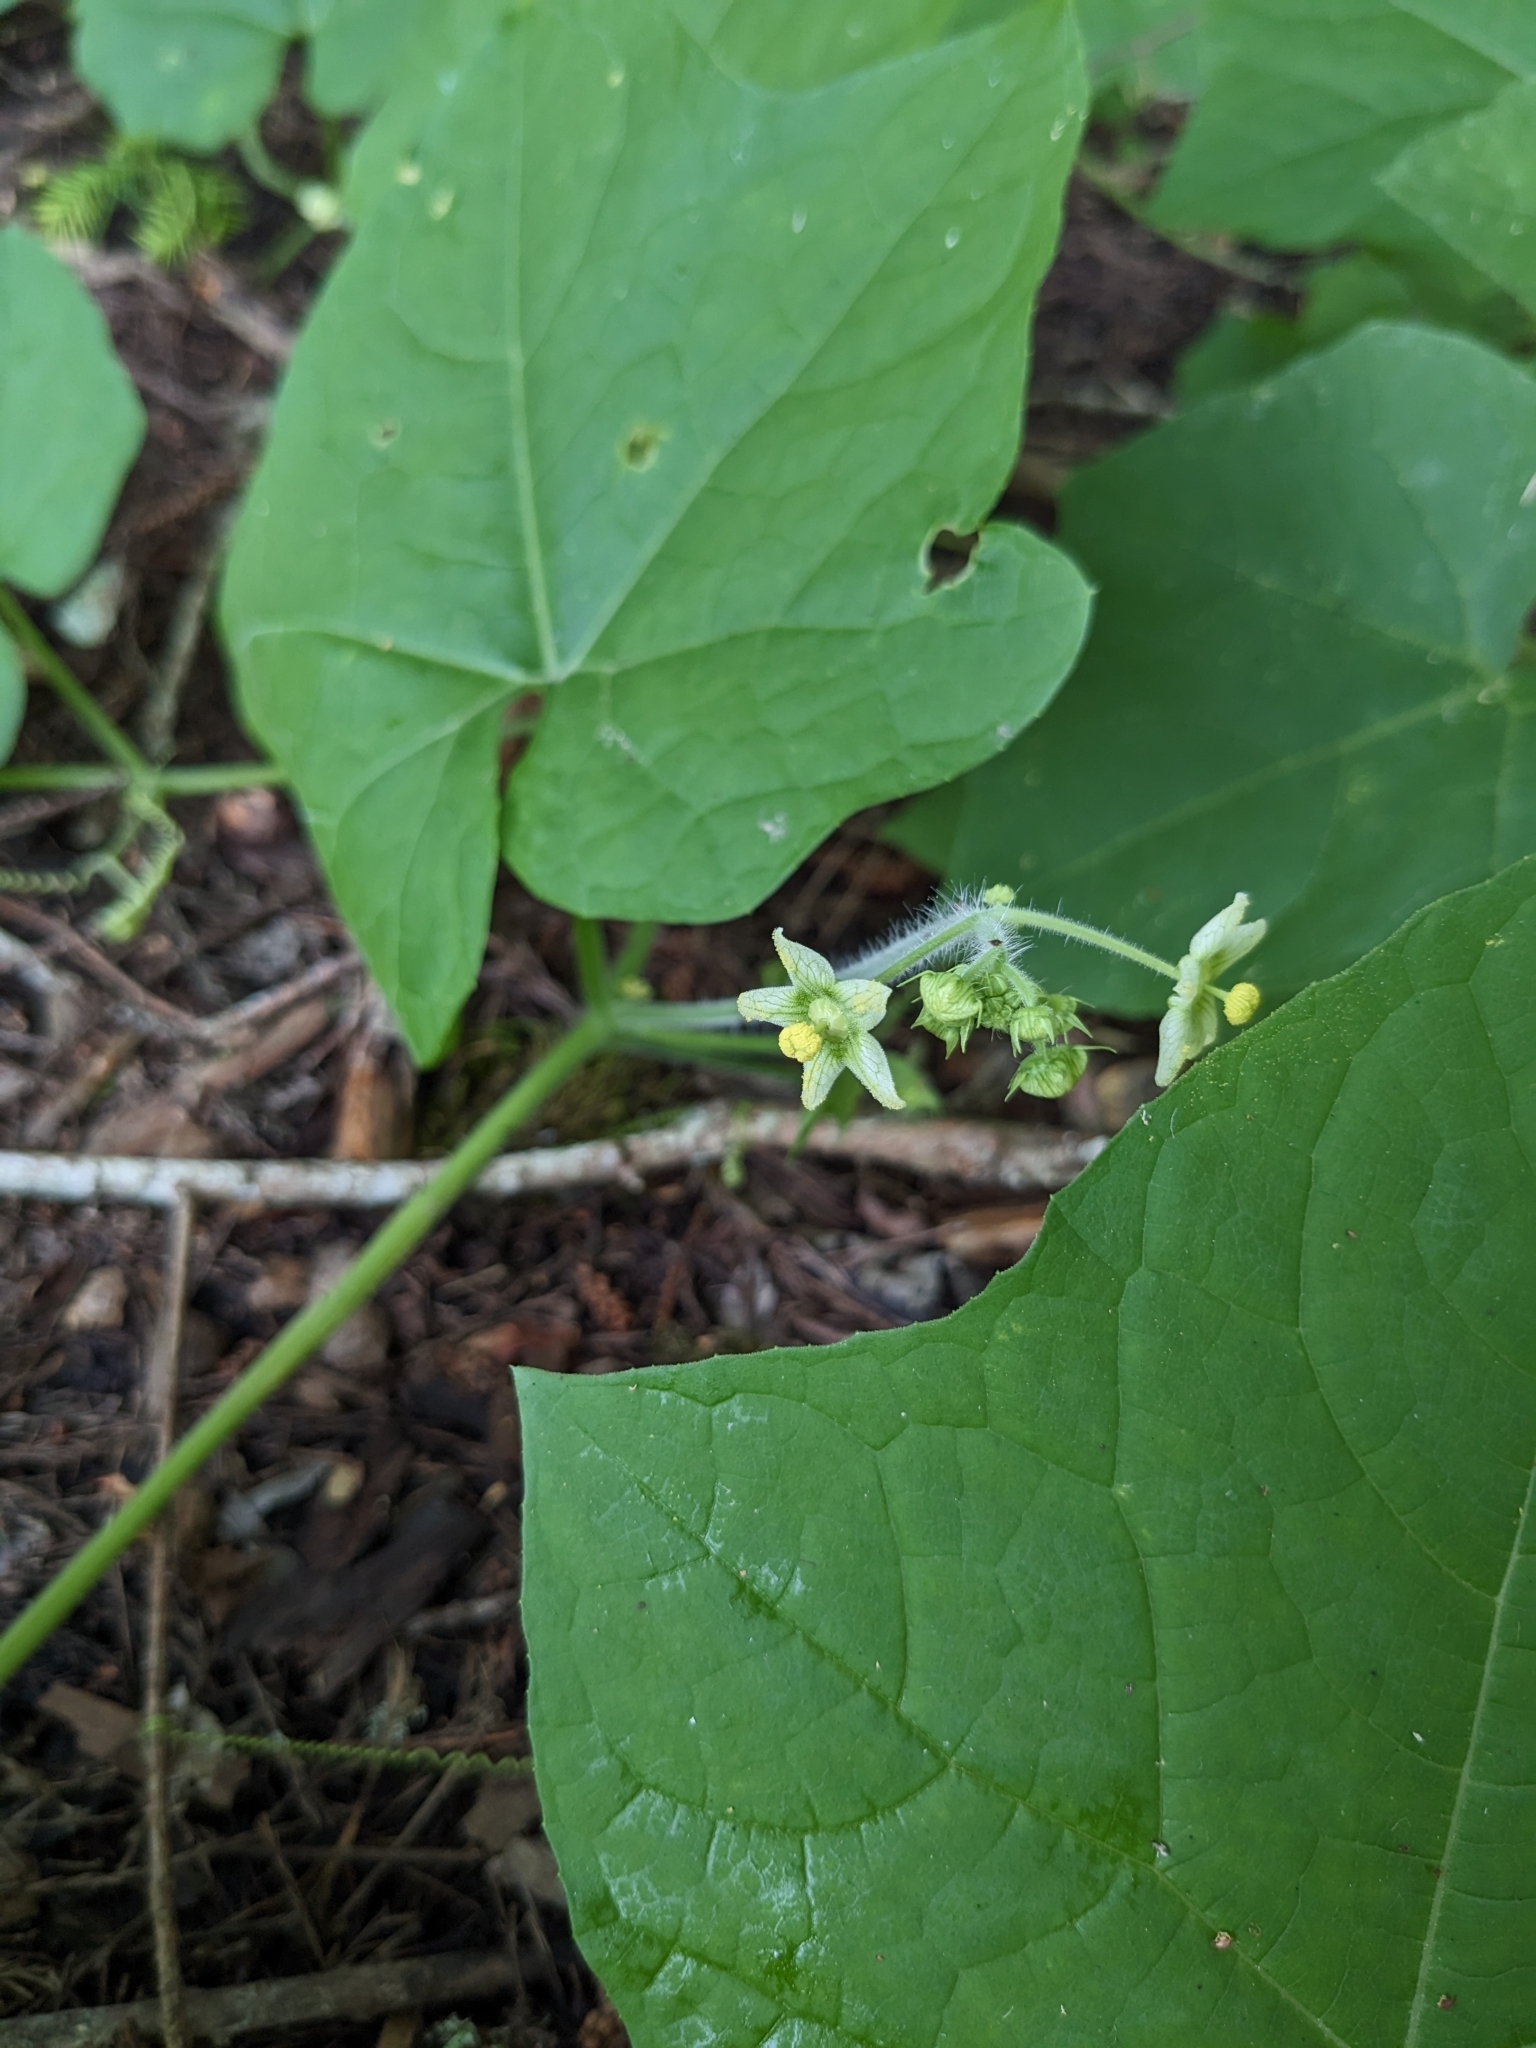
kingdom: Plantae
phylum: Tracheophyta
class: Magnoliopsida
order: Cucurbitales
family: Cucurbitaceae
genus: Sicyos
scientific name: Sicyos angulatus
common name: Angled burr cucumber
